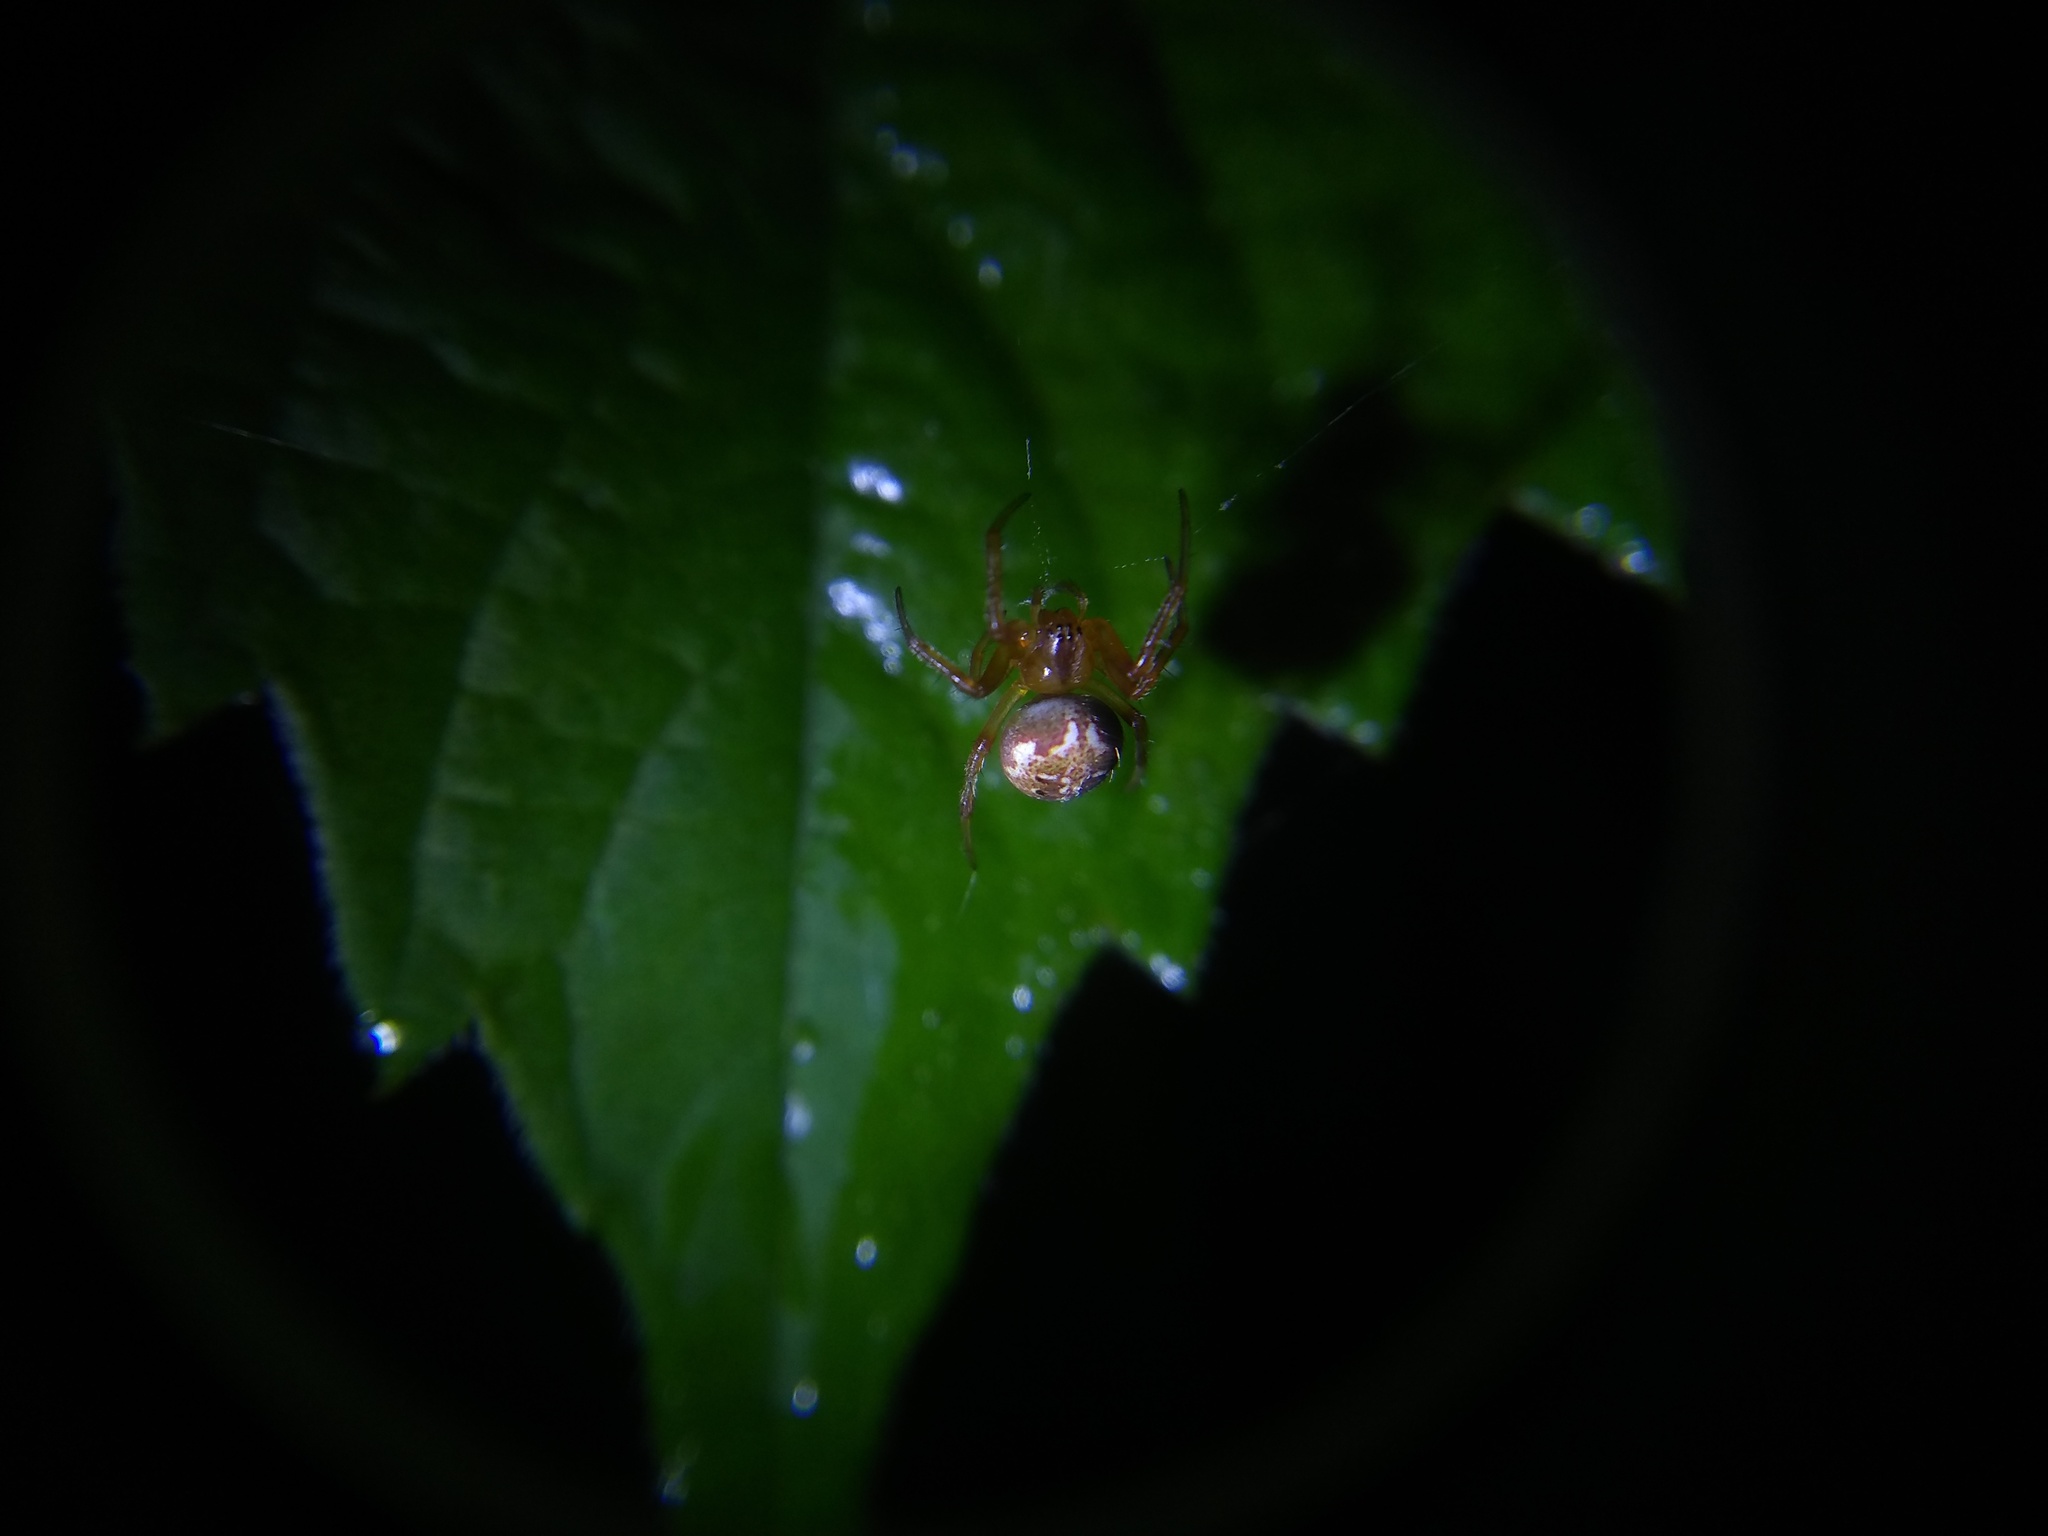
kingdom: Animalia
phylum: Arthropoda
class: Arachnida
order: Araneae
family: Araneidae
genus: Neoscona
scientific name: Neoscona arabesca
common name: Orb weavers
